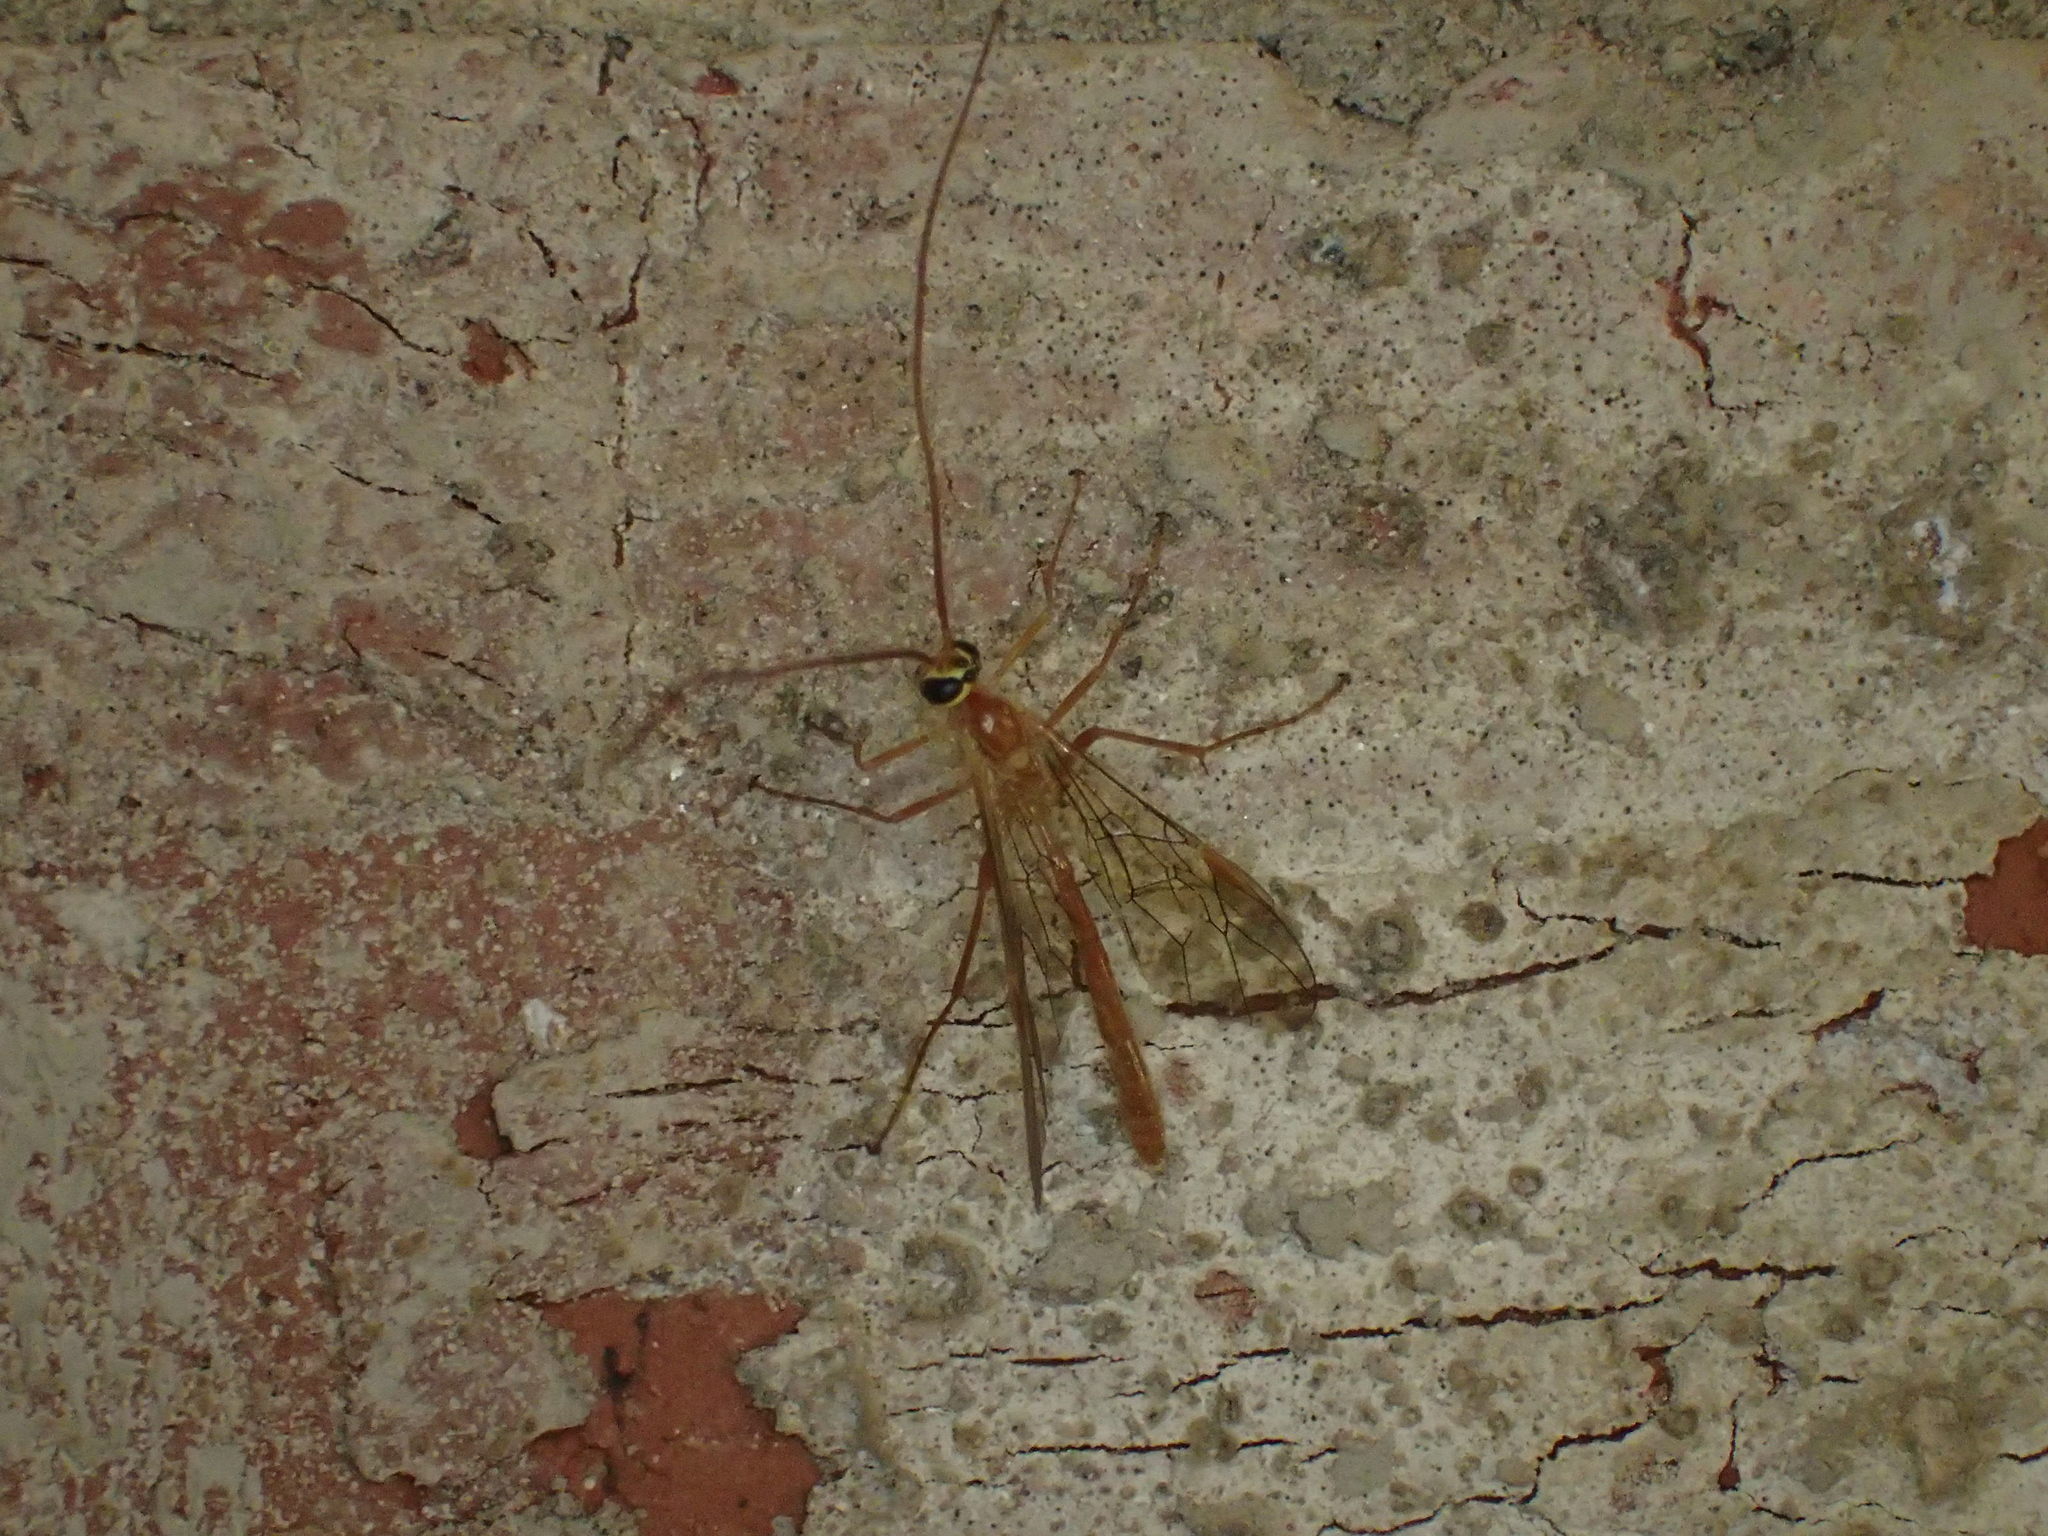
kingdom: Animalia
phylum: Arthropoda
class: Insecta
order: Hymenoptera
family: Ichneumonidae
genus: Ophion
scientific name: Ophion
